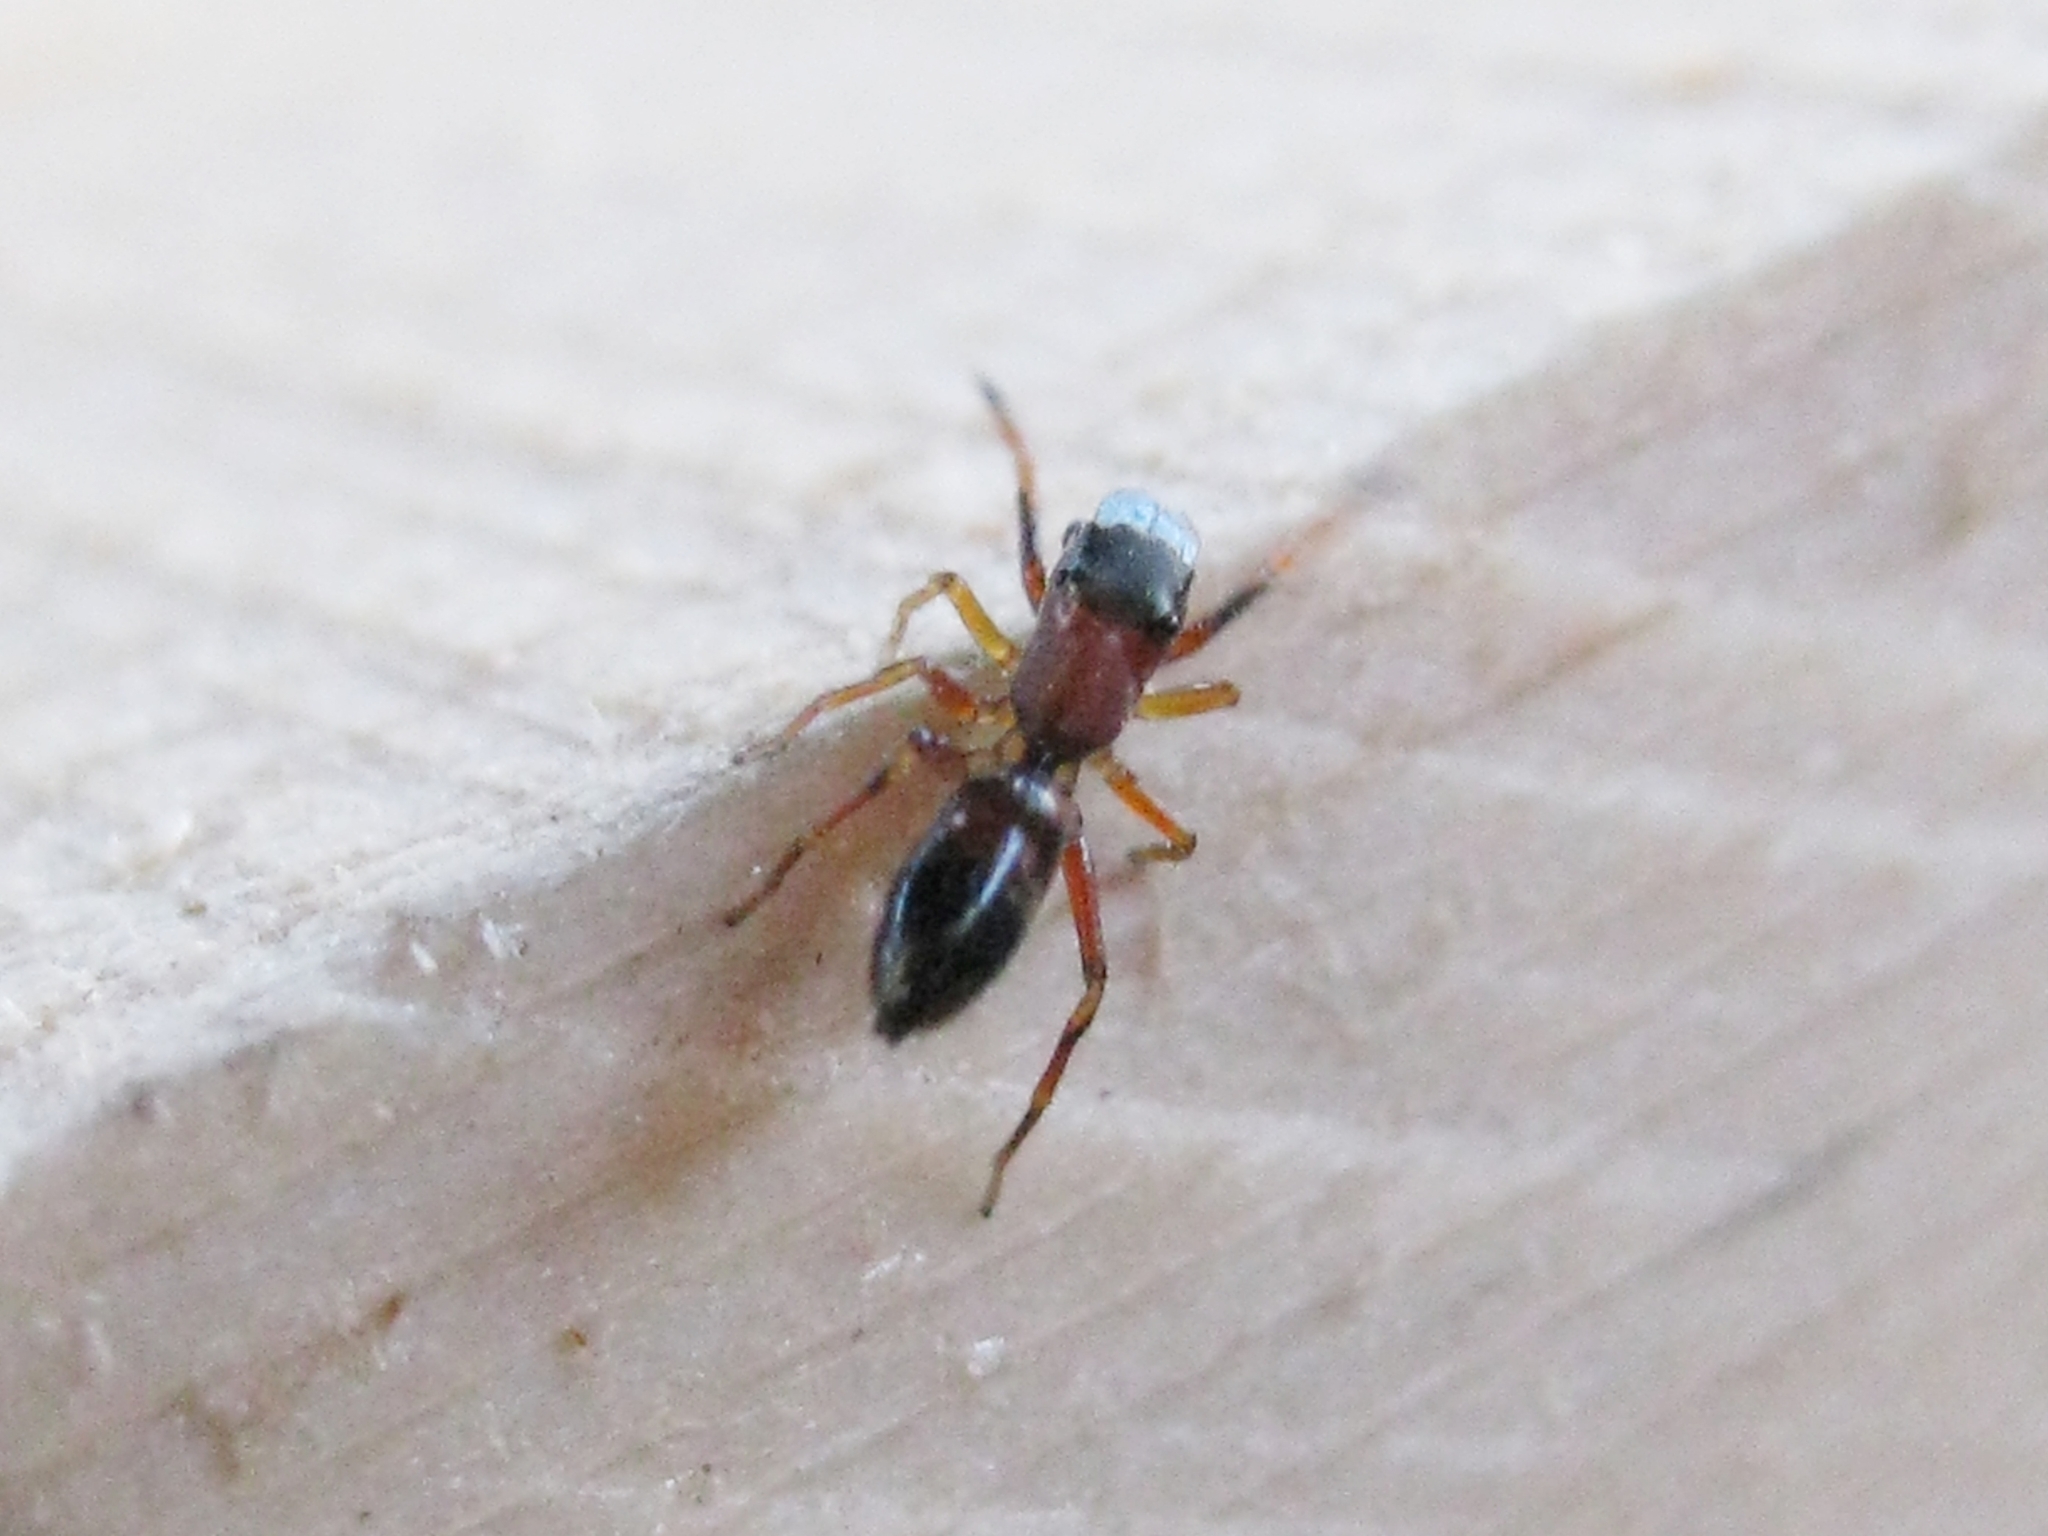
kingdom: Animalia
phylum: Arthropoda
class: Arachnida
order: Araneae
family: Salticidae
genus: Myrmarachne
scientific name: Myrmarachne formicaria
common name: Ant mimic jumping spider
